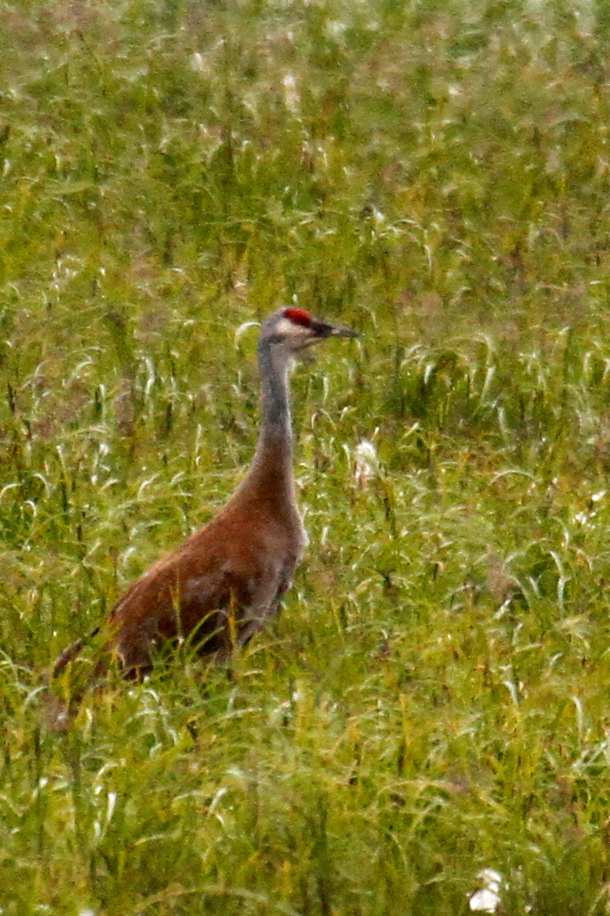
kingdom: Animalia
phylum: Chordata
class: Aves
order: Gruiformes
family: Gruidae
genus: Grus
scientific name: Grus canadensis
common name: Sandhill crane
